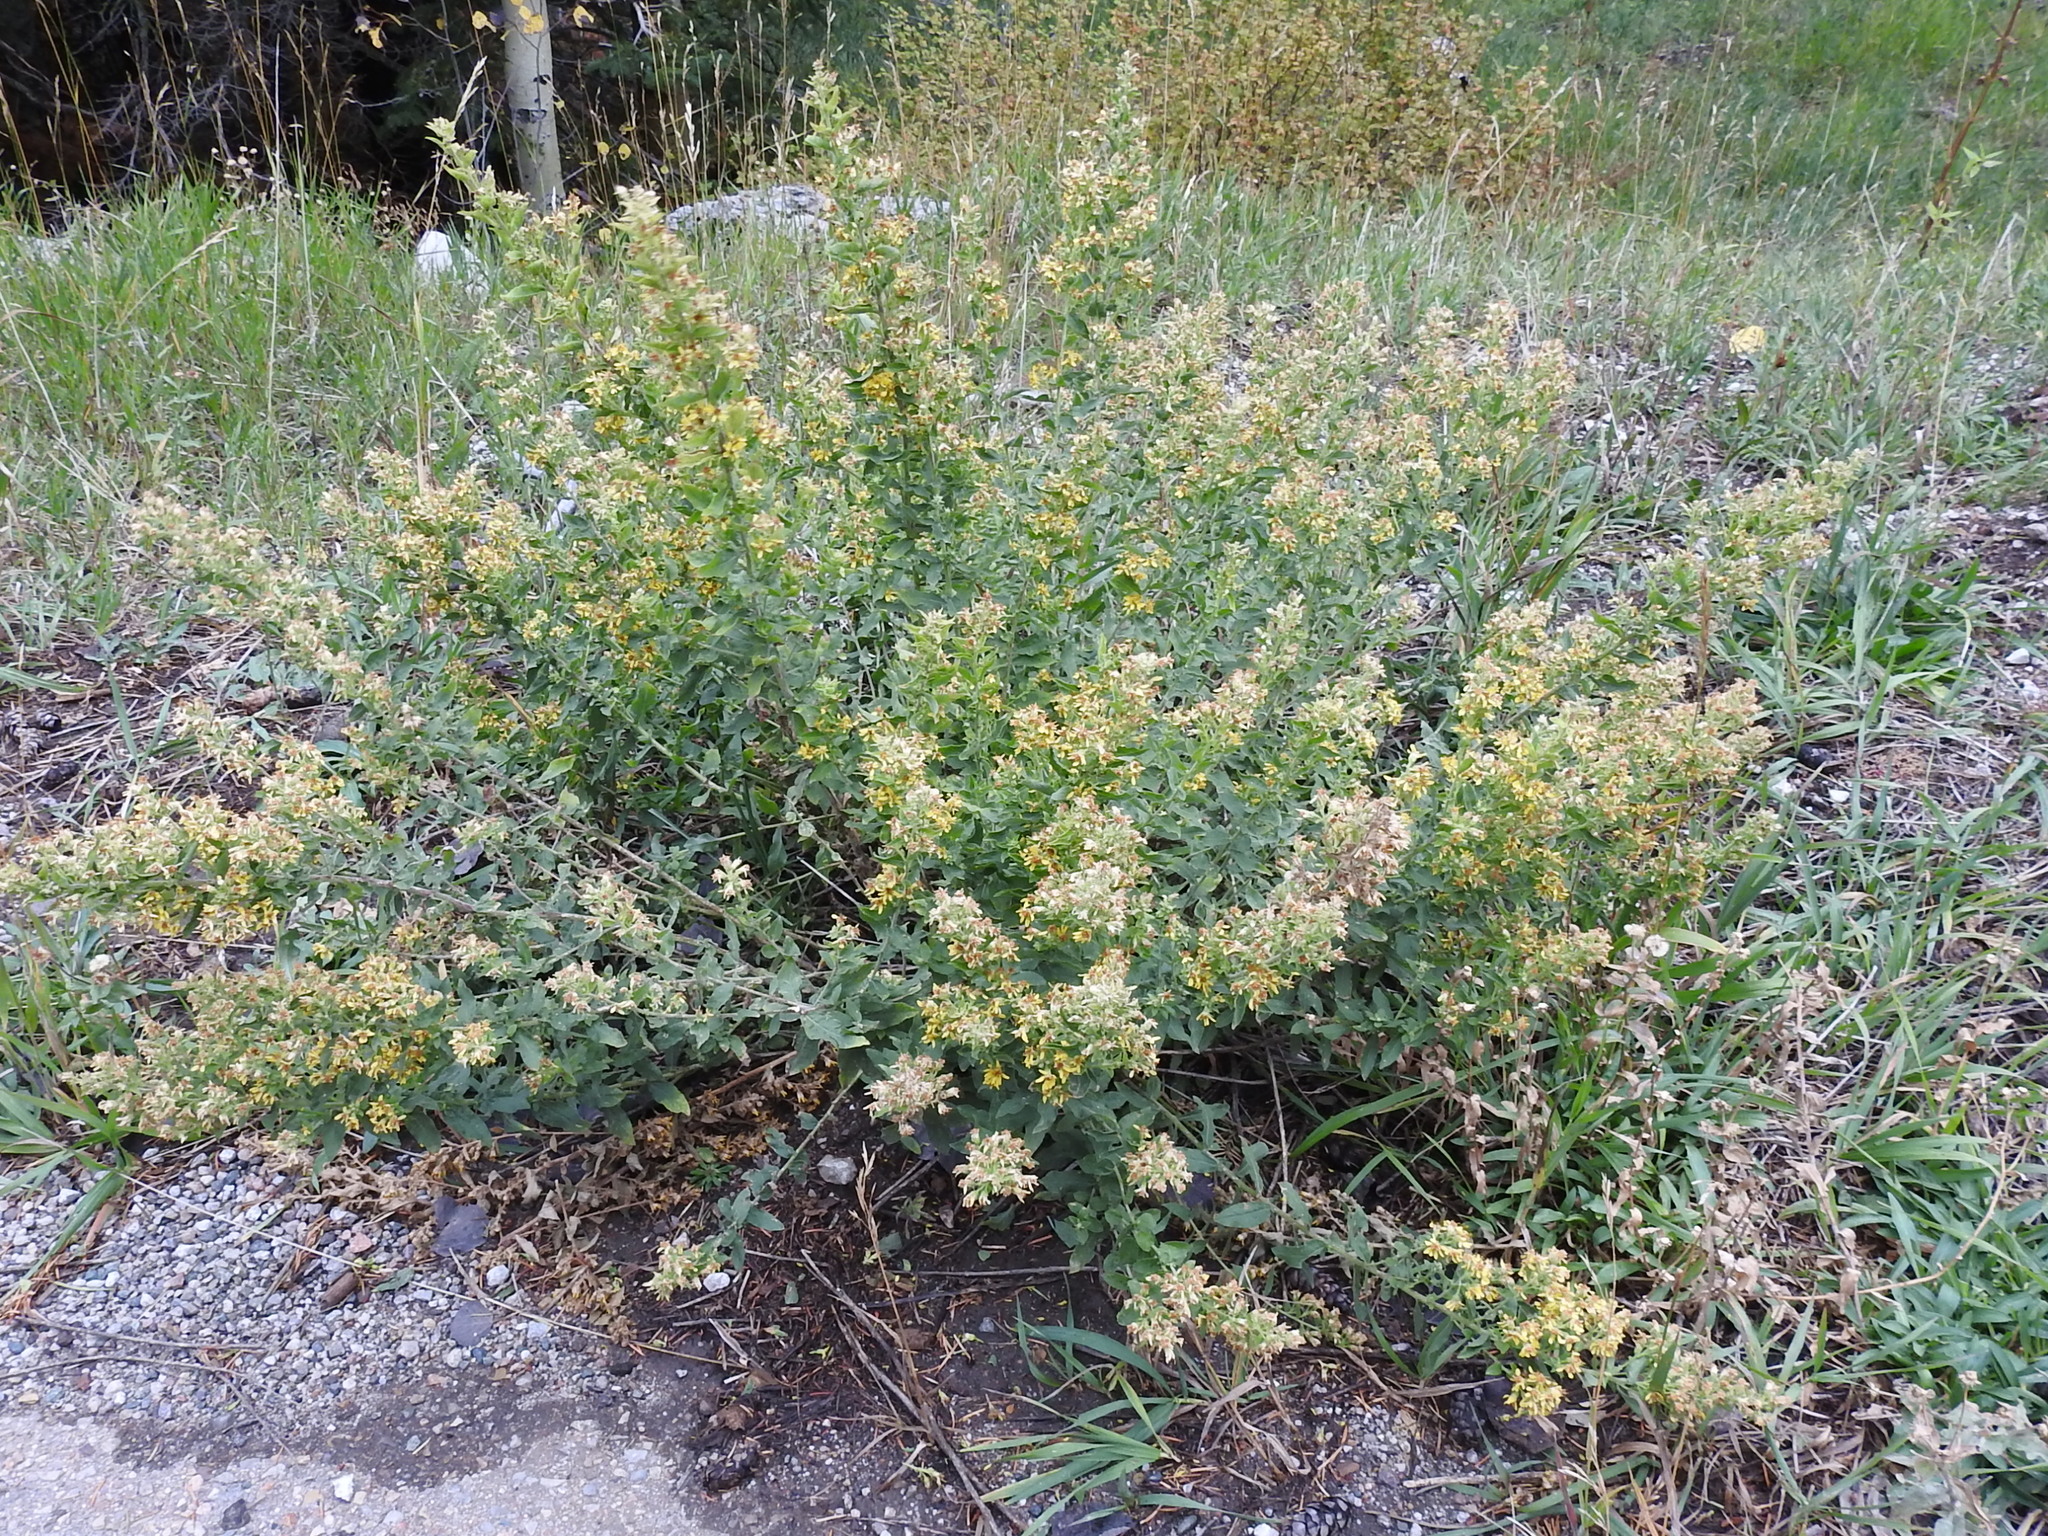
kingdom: Plantae
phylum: Tracheophyta
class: Magnoliopsida
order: Asterales
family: Asteraceae
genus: Solidago
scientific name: Solidago wrightii
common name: Wright's goldenrod
